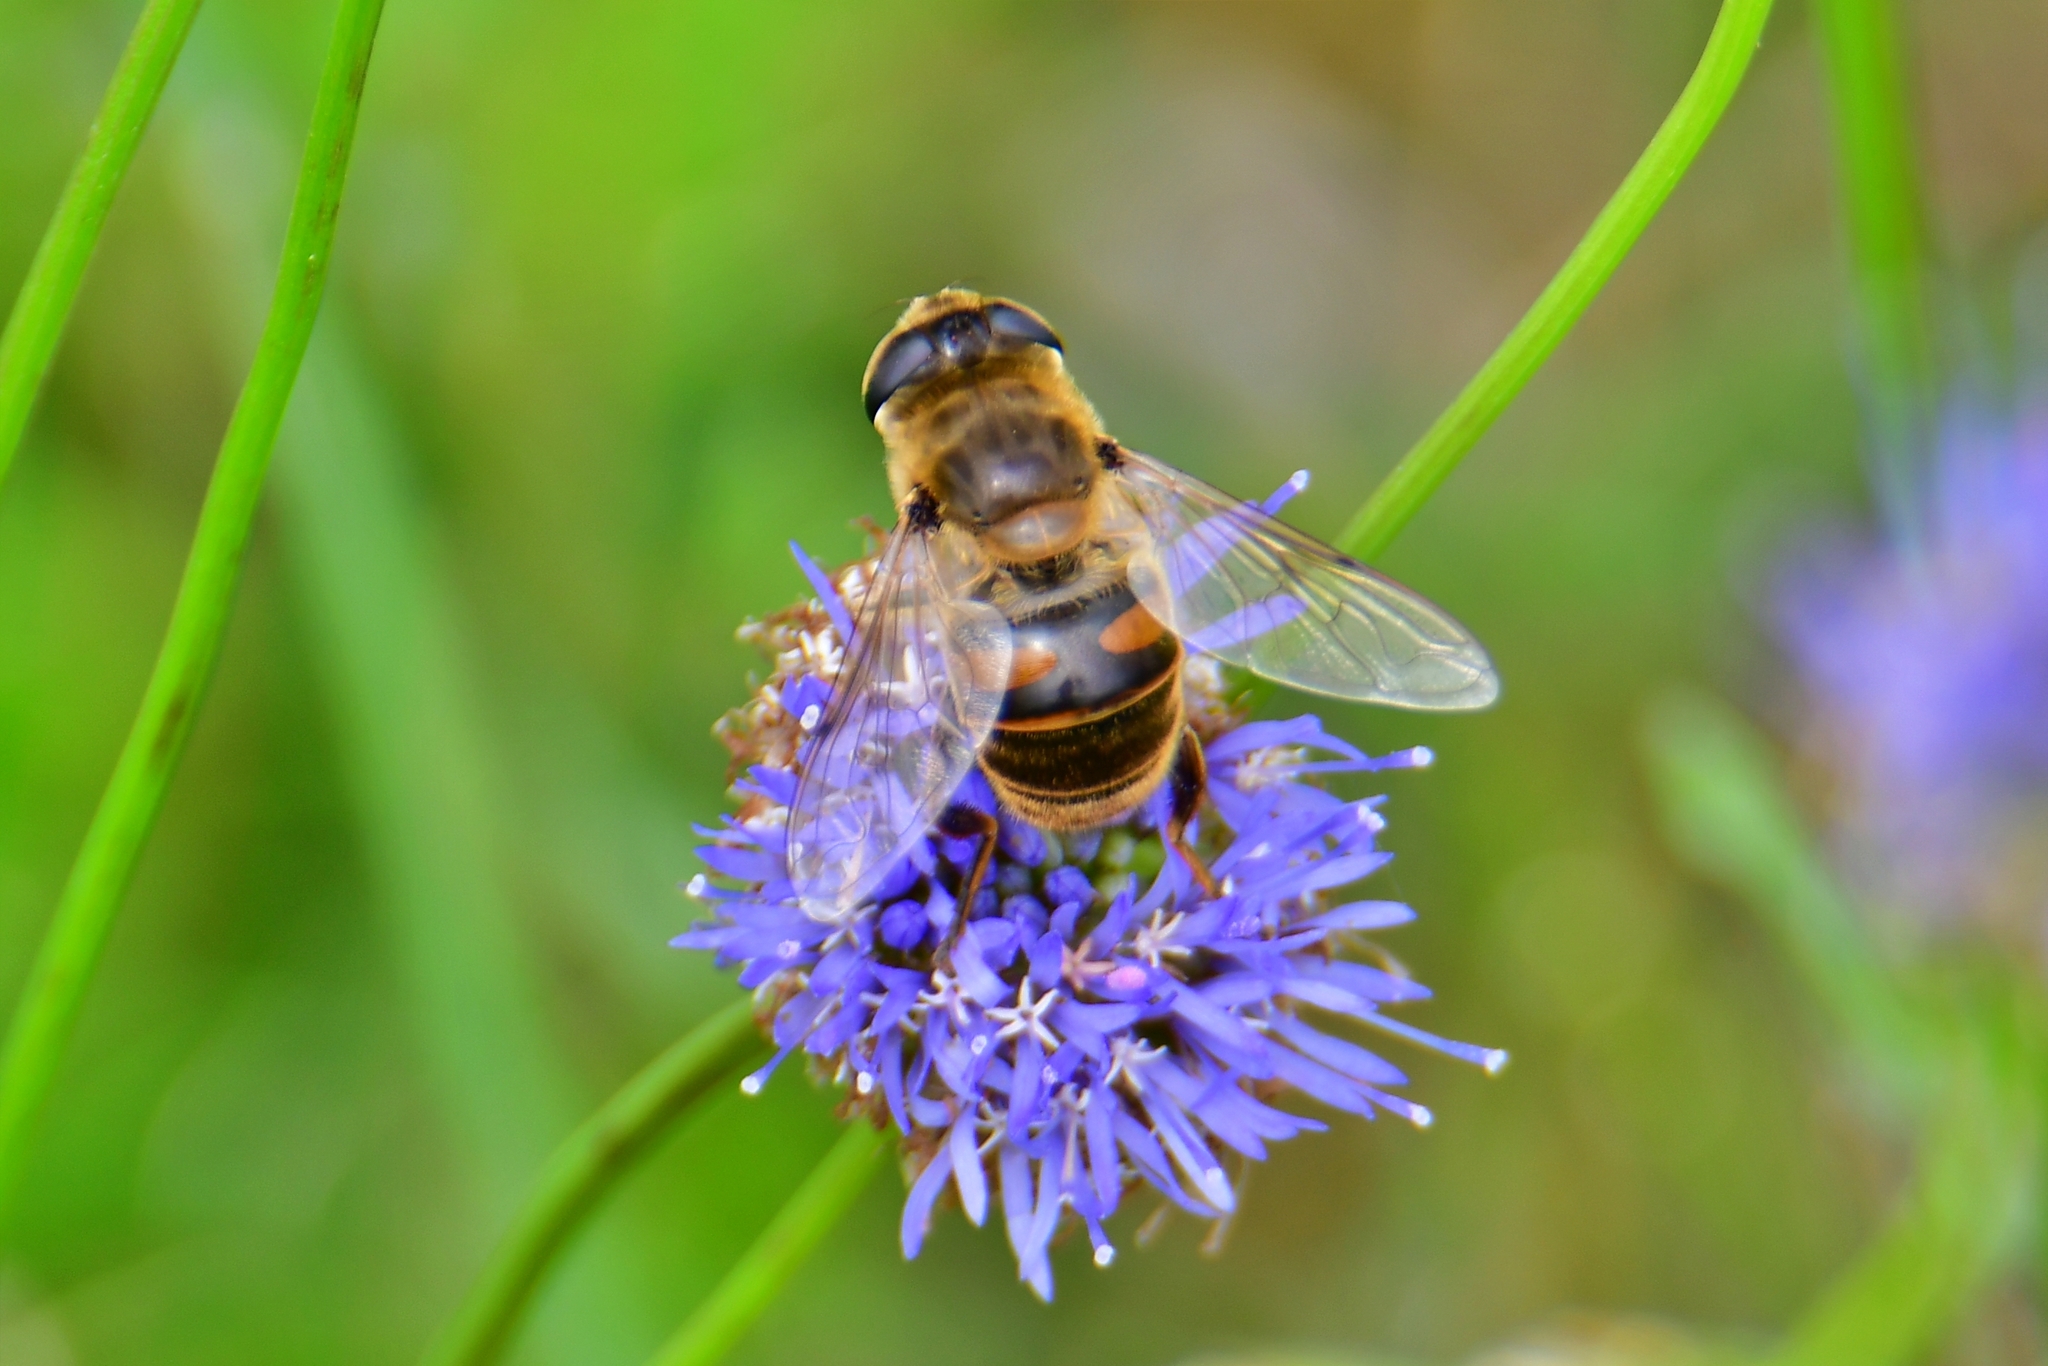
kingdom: Animalia
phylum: Arthropoda
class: Insecta
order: Diptera
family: Syrphidae
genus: Eristalis
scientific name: Eristalis tenax
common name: Drone fly
